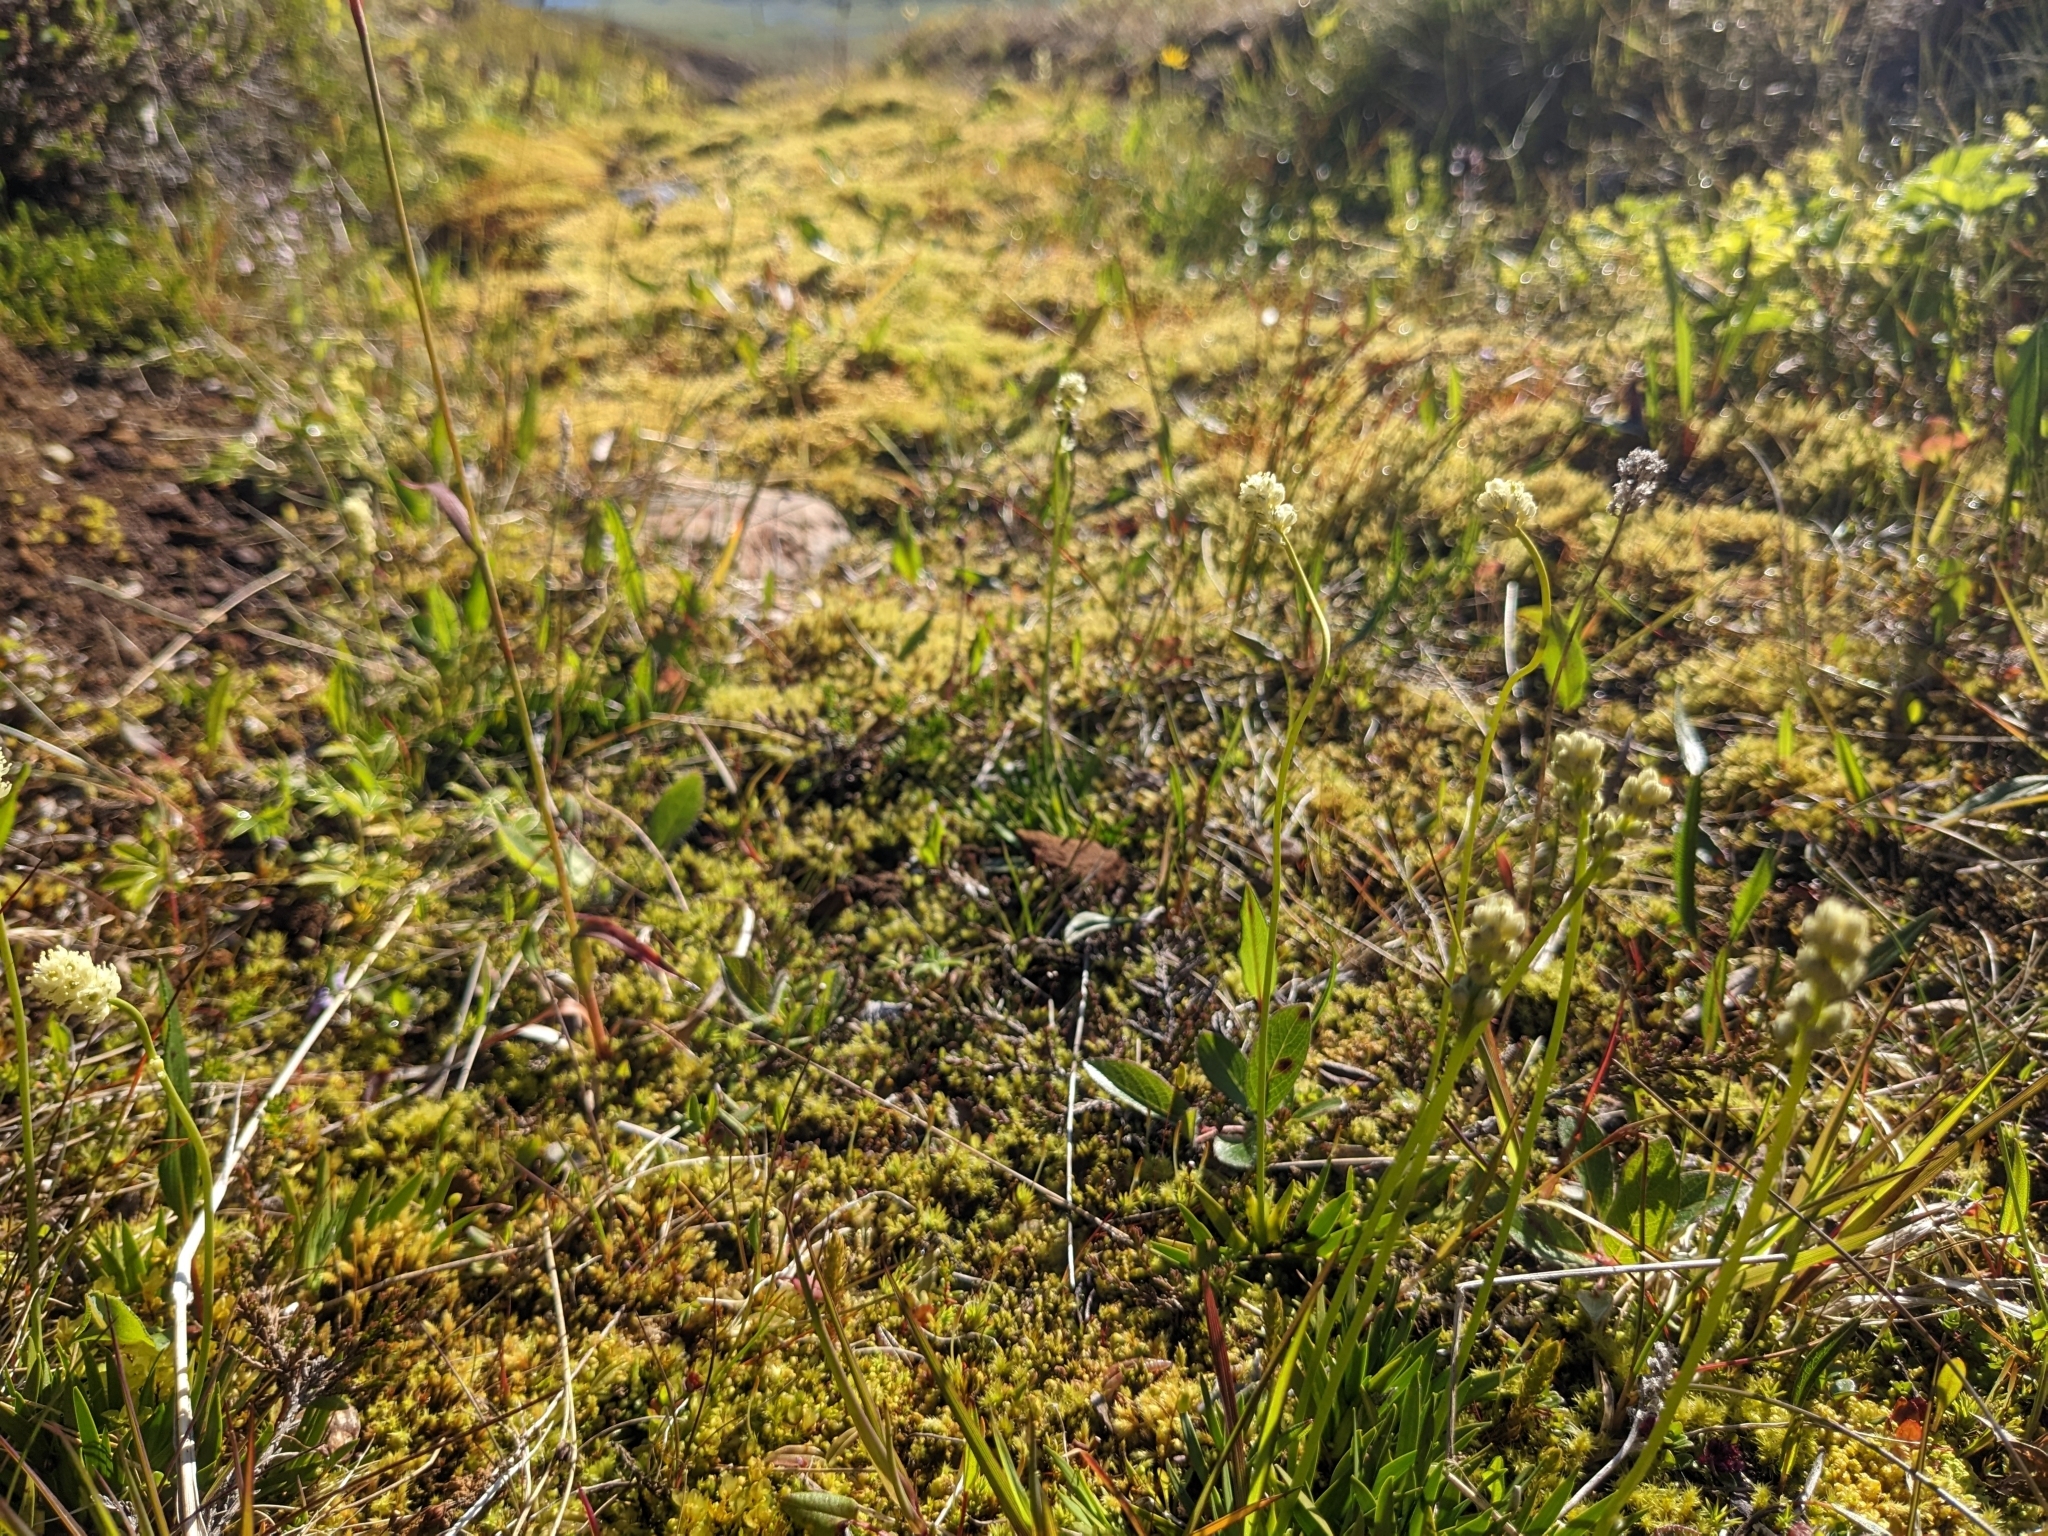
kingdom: Plantae
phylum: Tracheophyta
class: Liliopsida
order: Alismatales
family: Tofieldiaceae
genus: Tofieldia
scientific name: Tofieldia pusilla
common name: Scottish false asphodel
